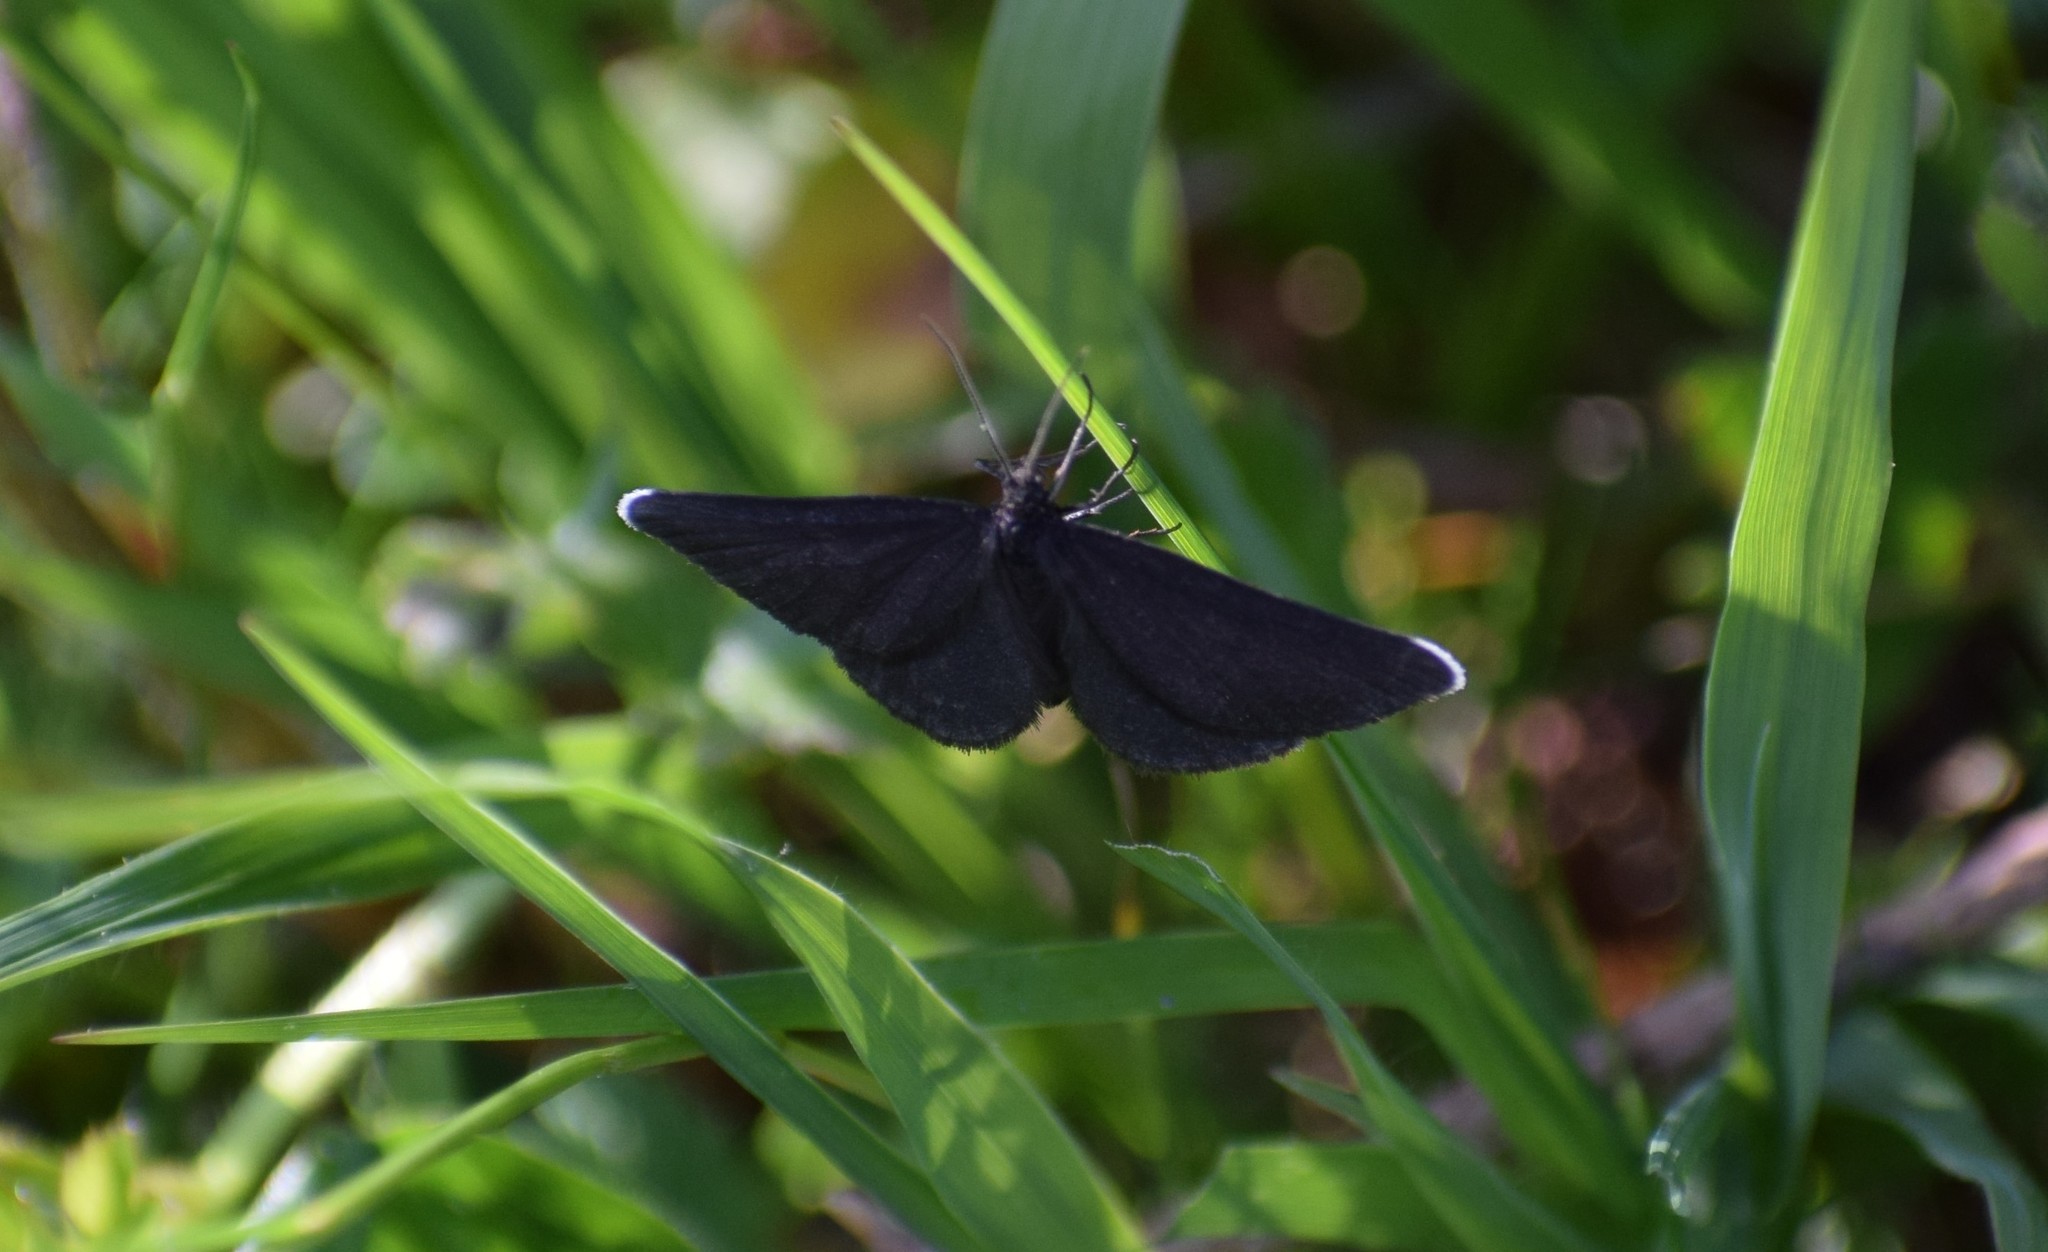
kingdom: Animalia
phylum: Arthropoda
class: Insecta
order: Lepidoptera
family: Geometridae
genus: Odezia
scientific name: Odezia atrata
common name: Chimney sweeper
